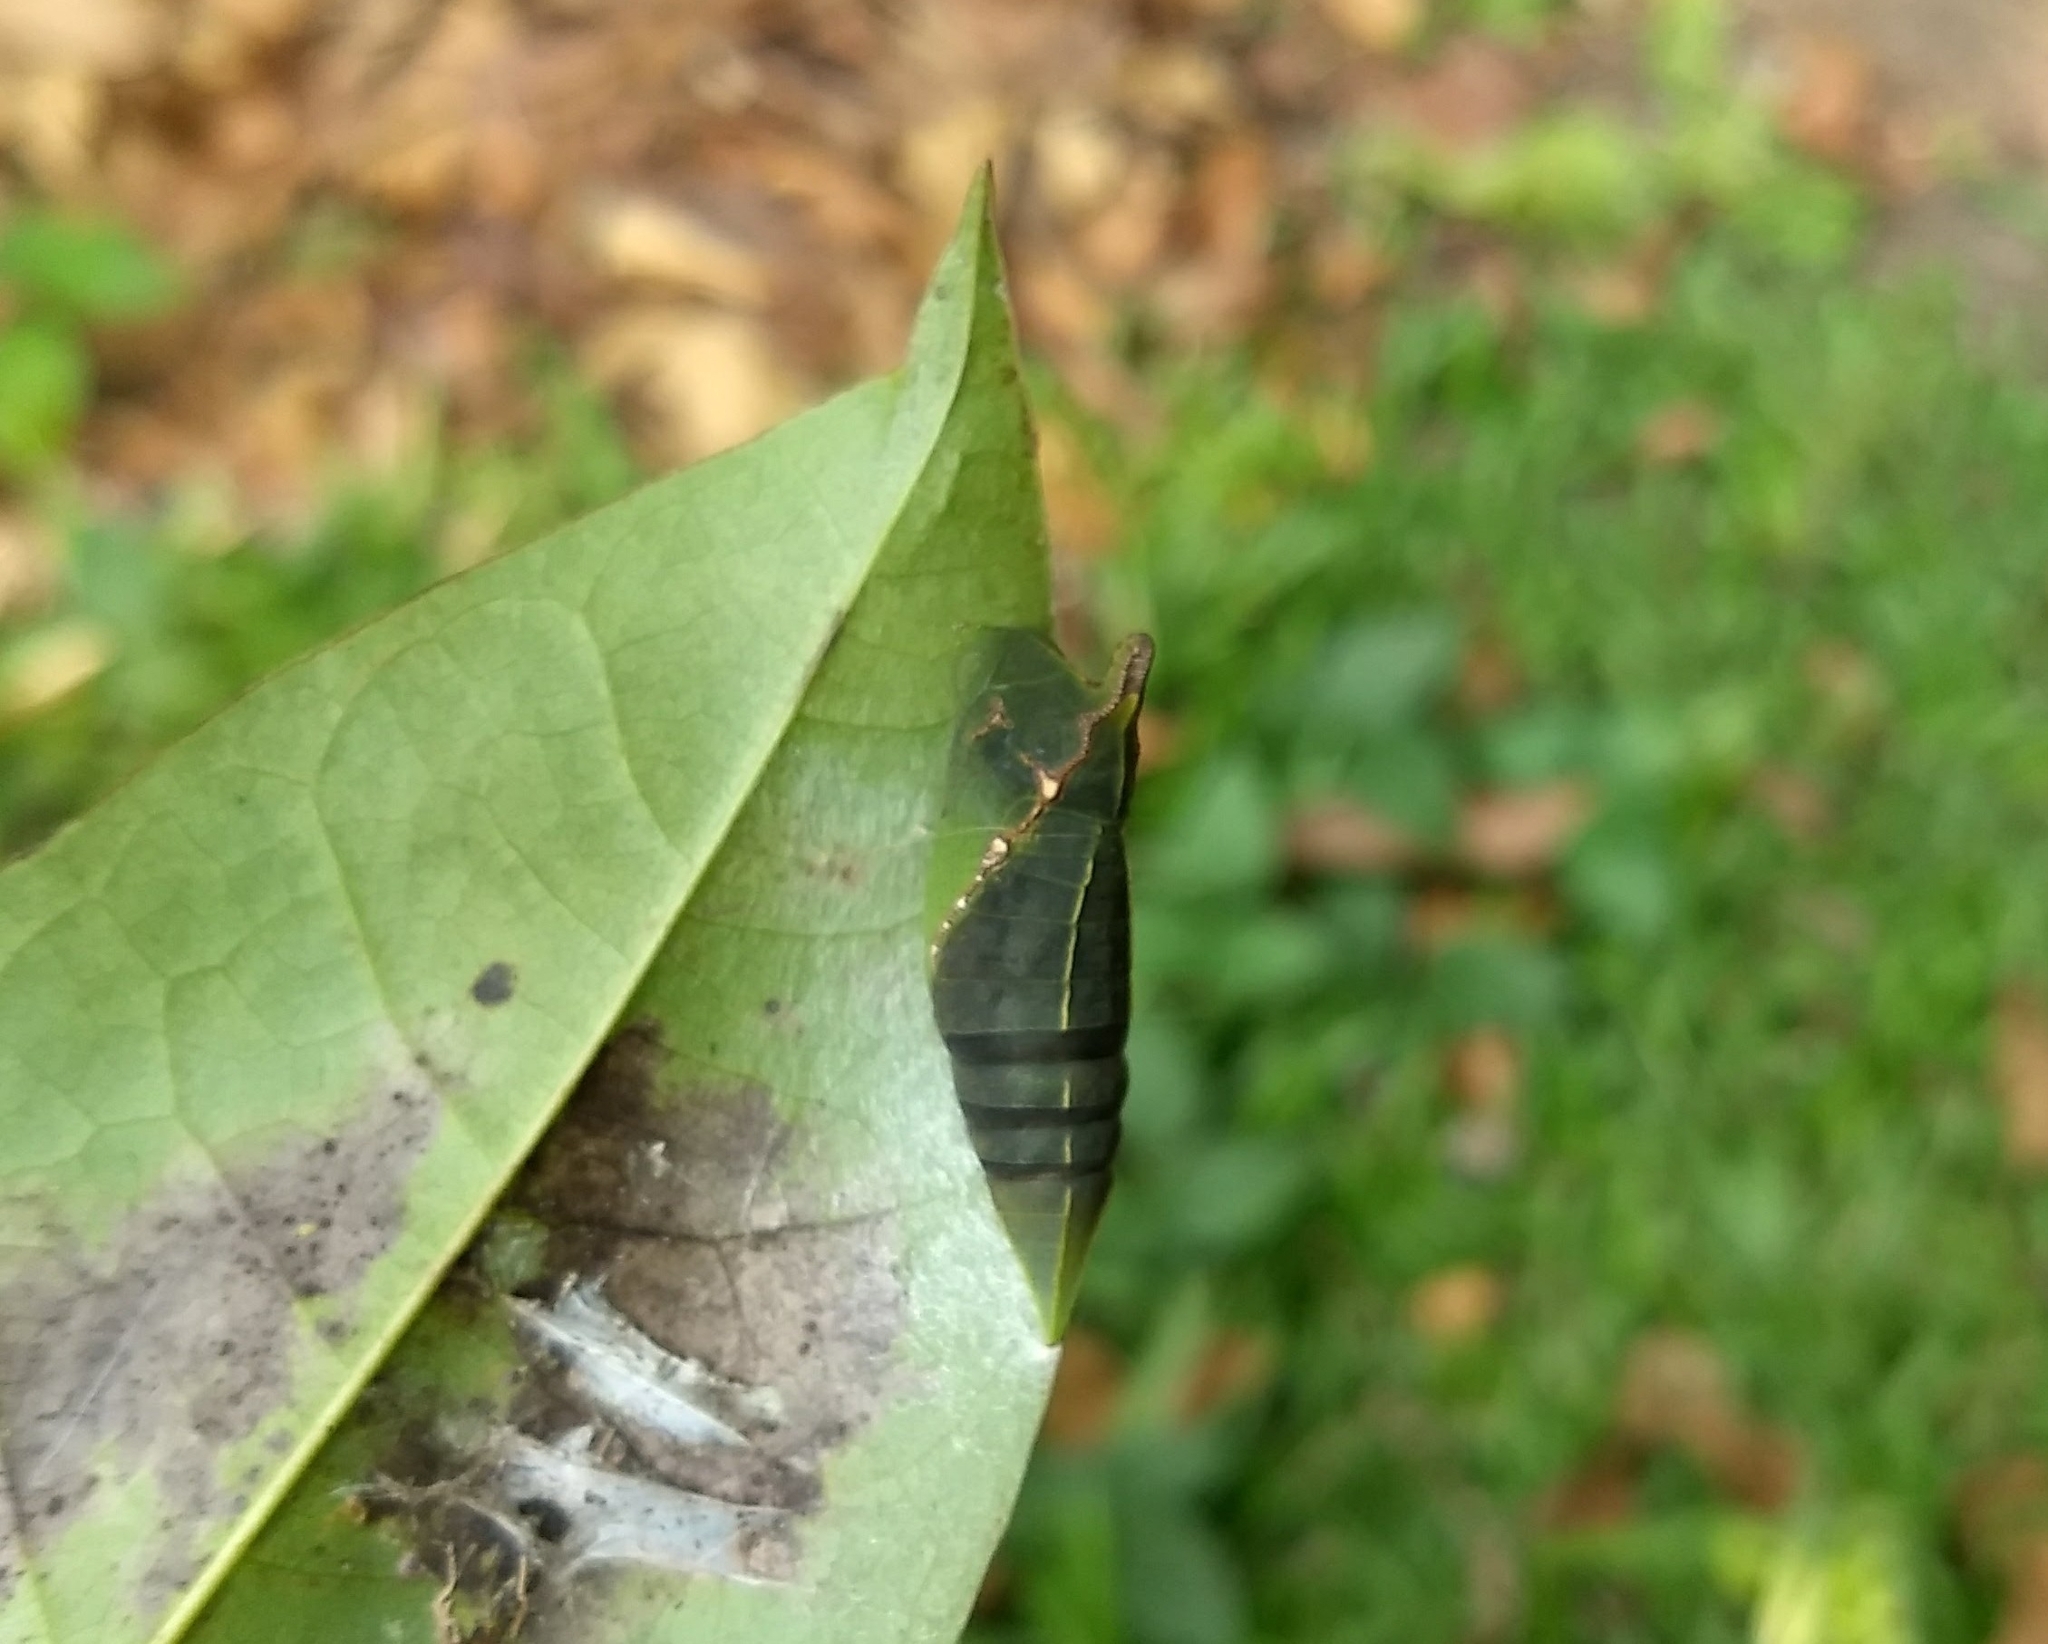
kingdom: Animalia
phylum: Arthropoda
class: Insecta
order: Lepidoptera
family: Papilionidae
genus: Graphium
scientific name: Graphium agamemnon
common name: Tailed jay
